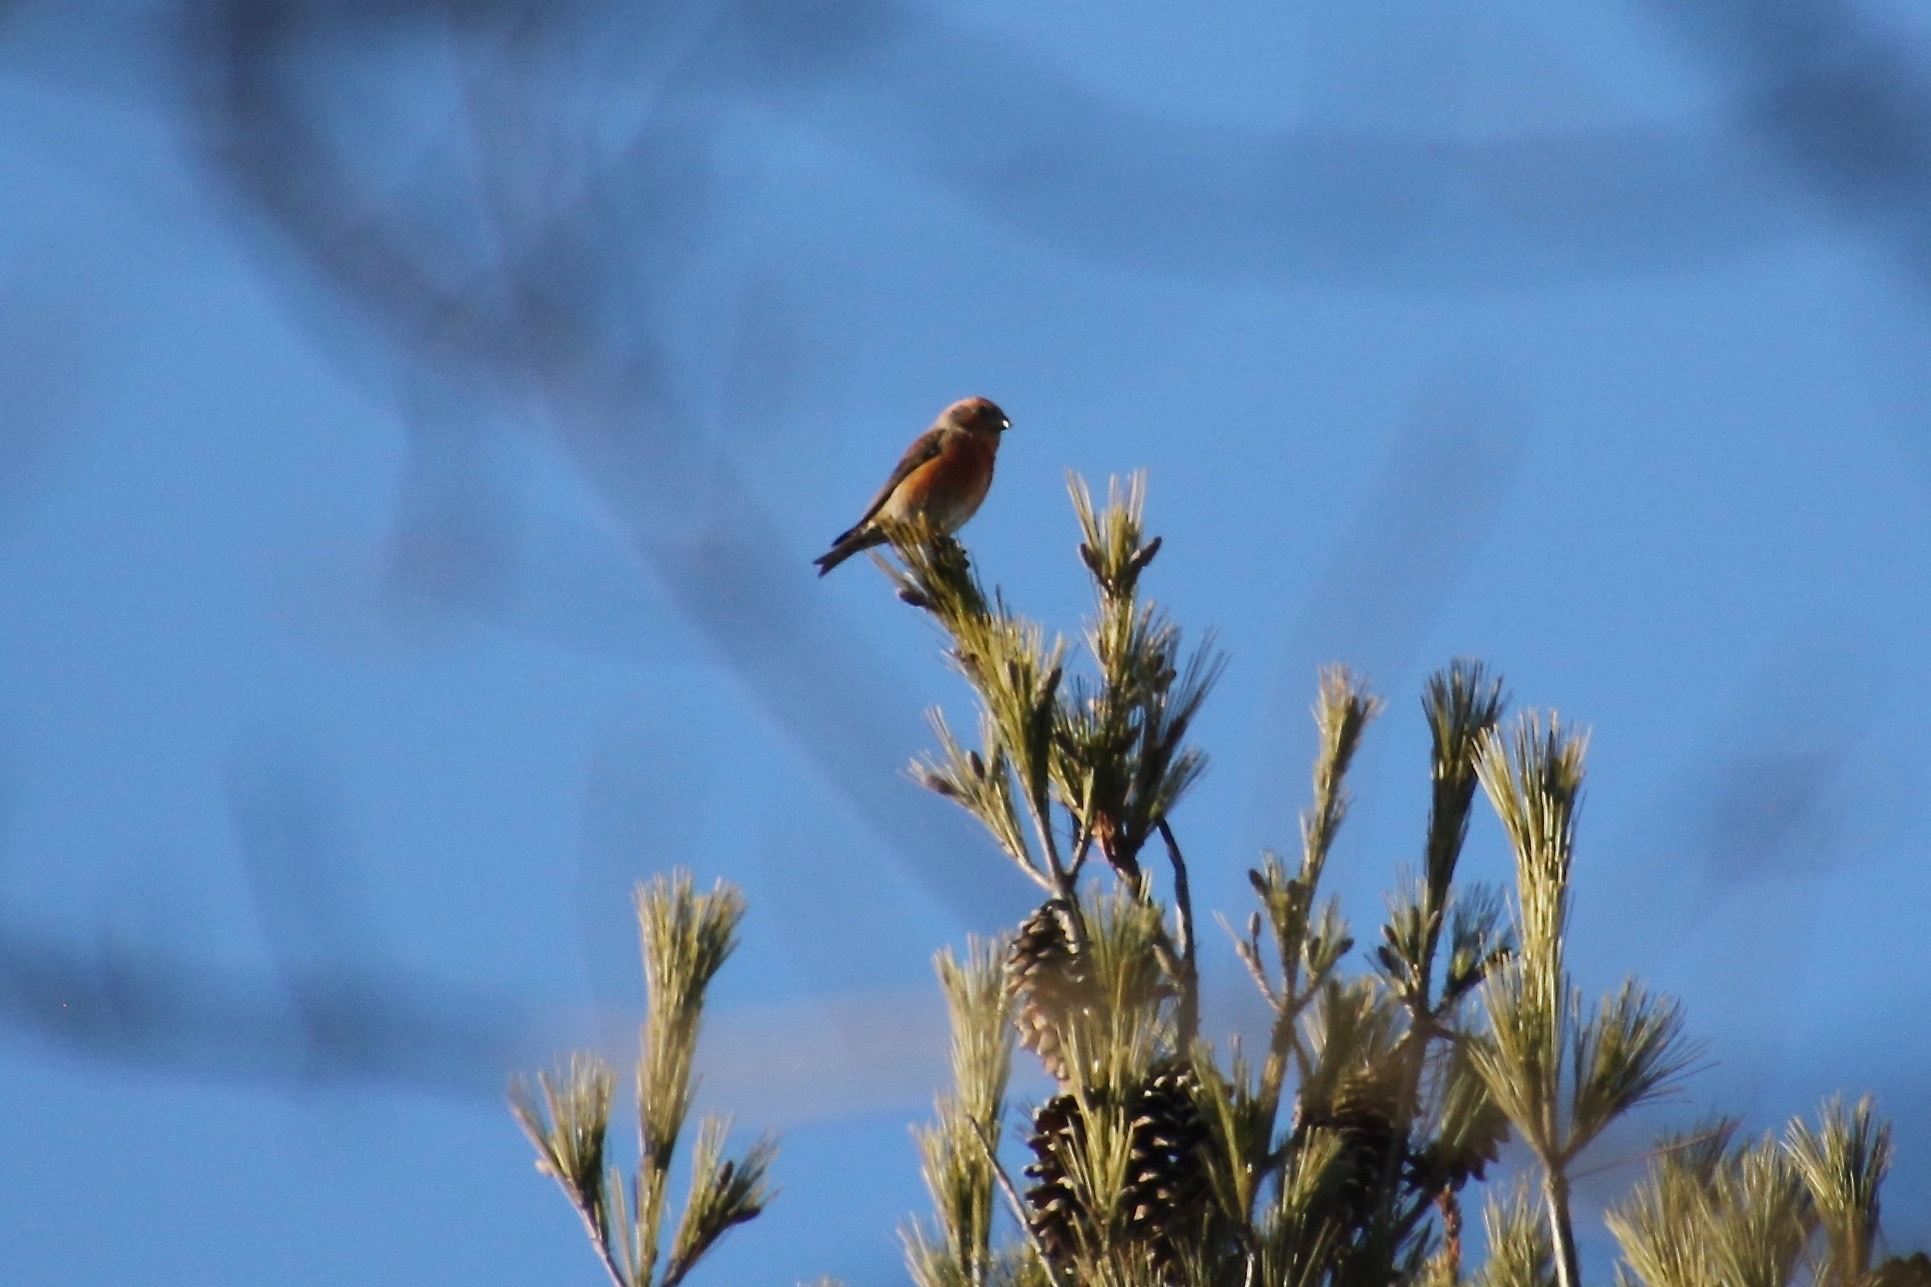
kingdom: Animalia
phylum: Chordata
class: Aves
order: Passeriformes
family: Fringillidae
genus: Loxia
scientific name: Loxia curvirostra
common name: Red crossbill
